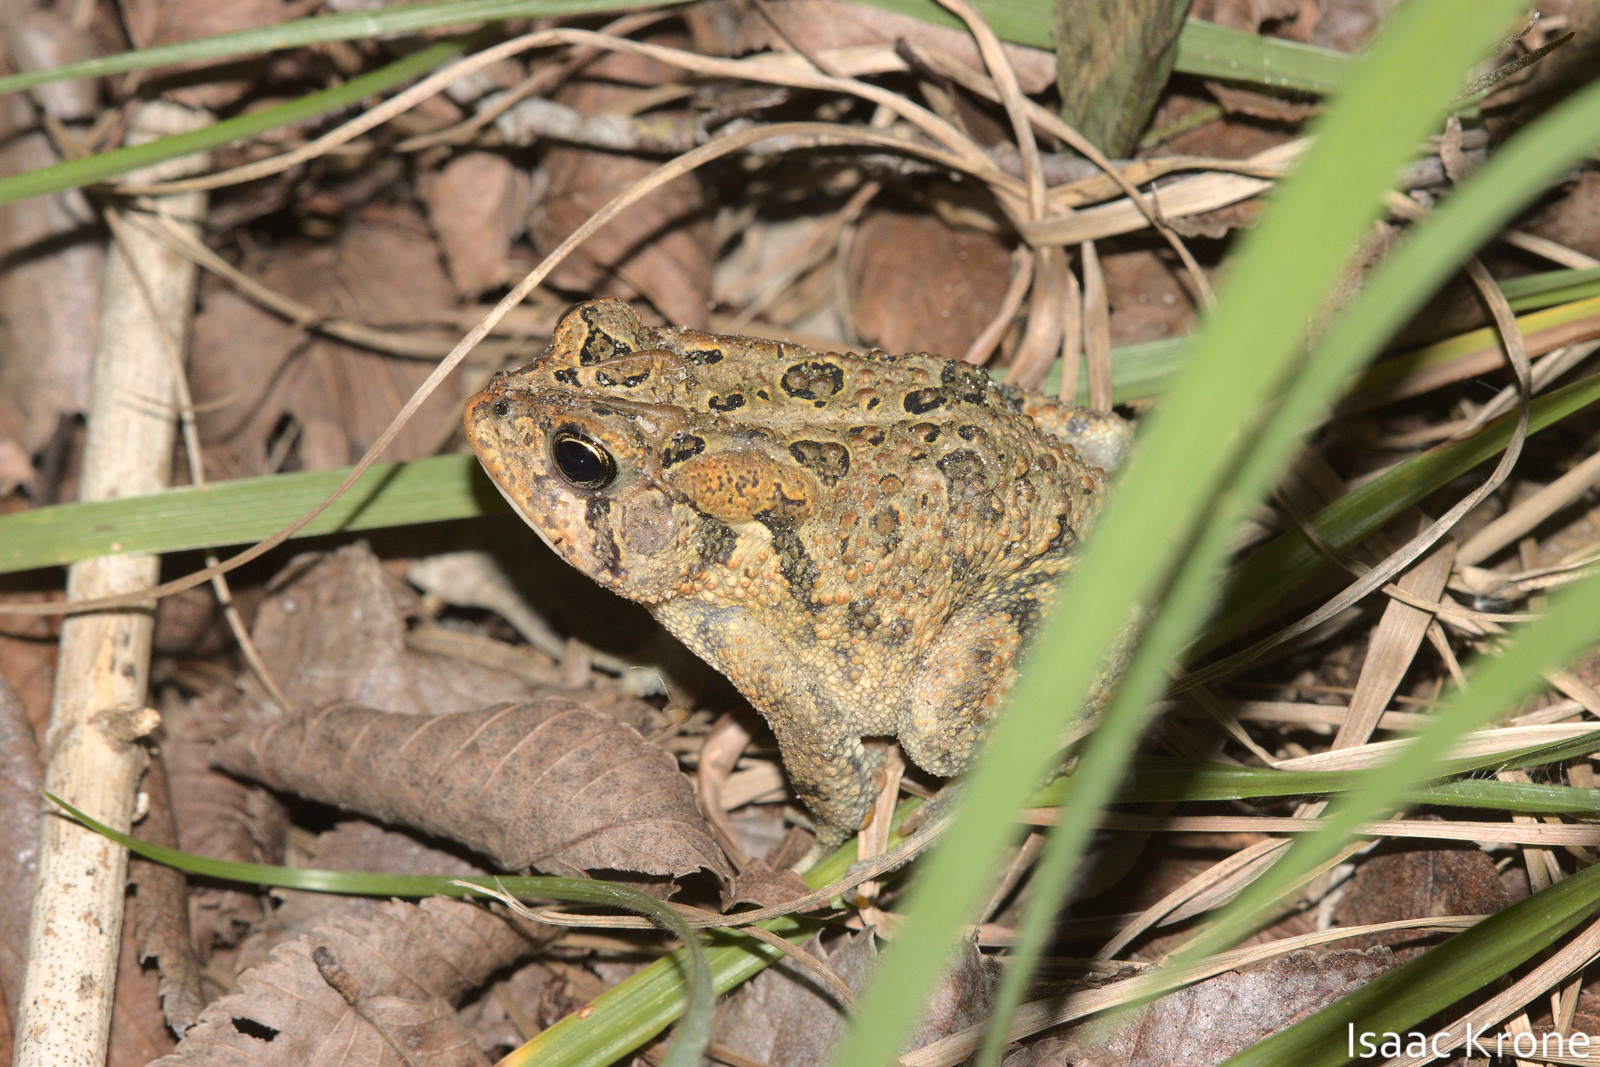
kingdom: Animalia
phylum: Chordata
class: Amphibia
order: Anura
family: Bufonidae
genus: Anaxyrus
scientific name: Anaxyrus terrestris
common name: Southern toad
